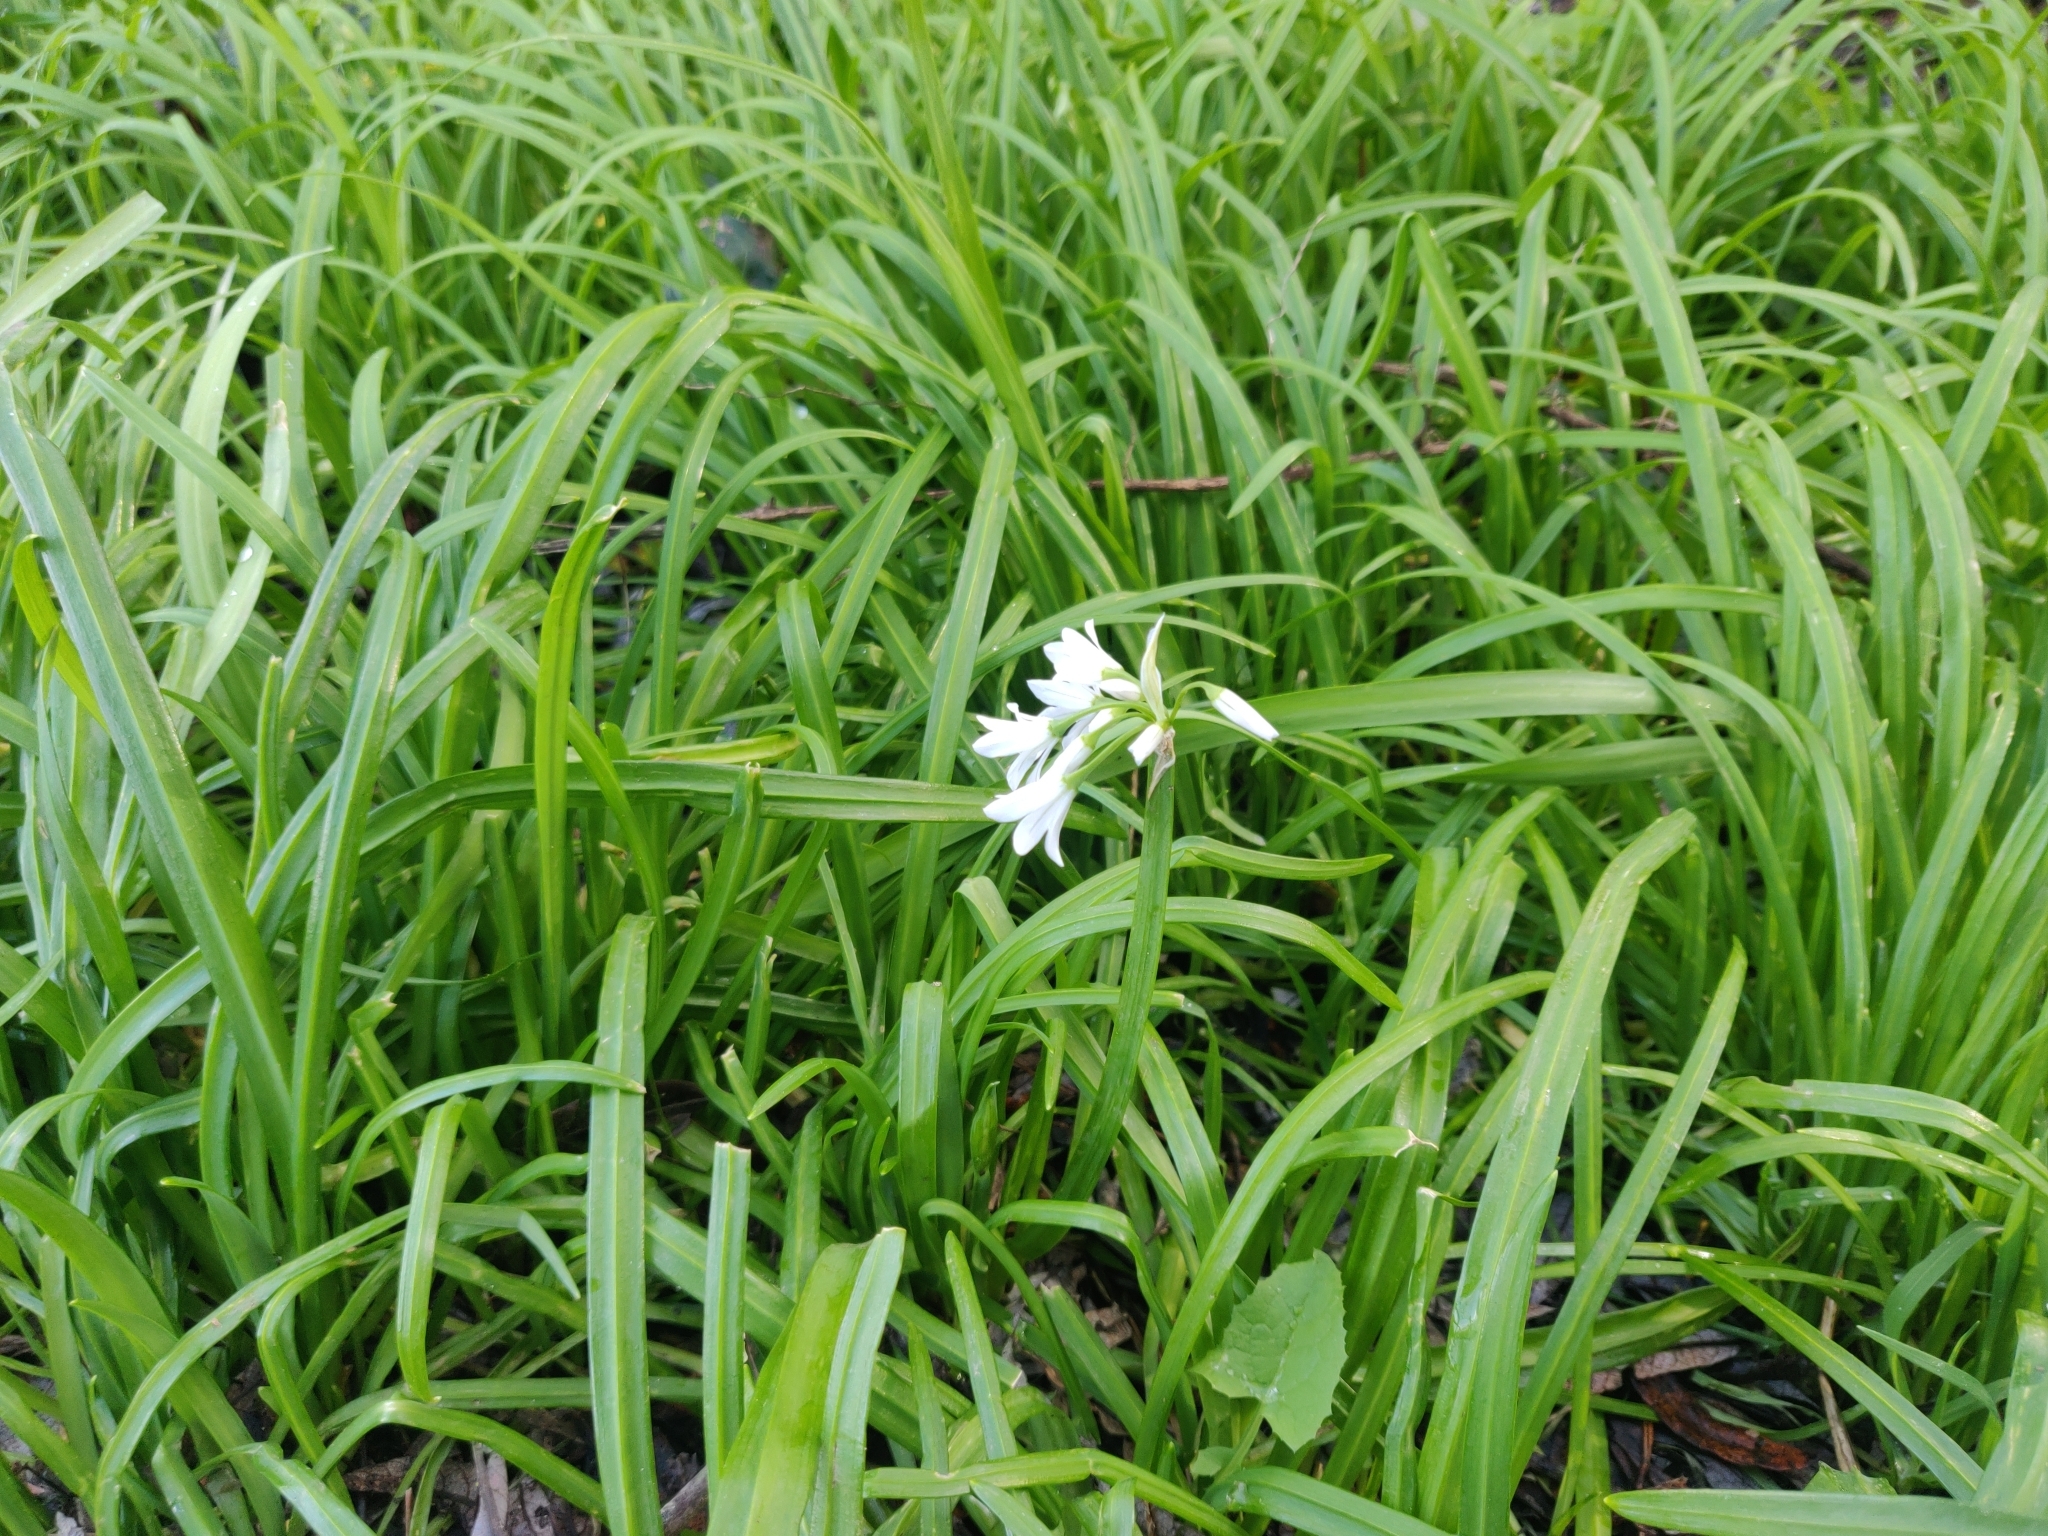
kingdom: Plantae
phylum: Tracheophyta
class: Liliopsida
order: Asparagales
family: Amaryllidaceae
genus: Allium
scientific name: Allium triquetrum
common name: Three-cornered garlic
